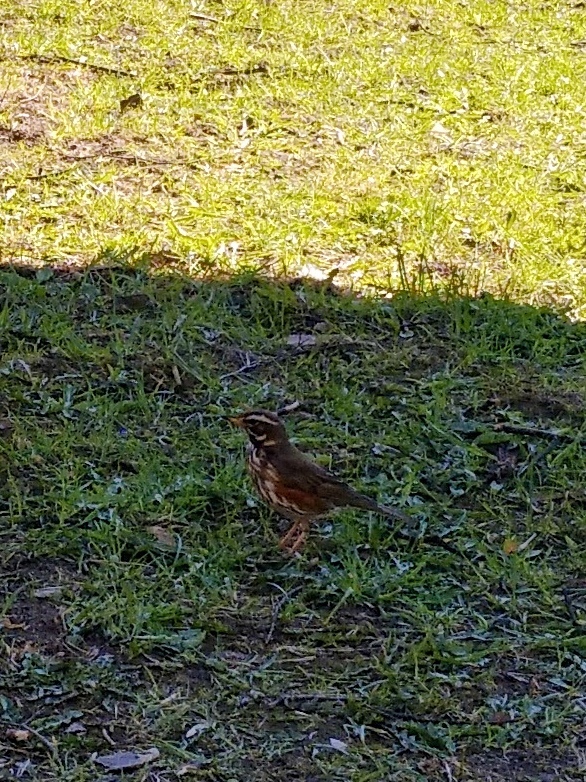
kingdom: Animalia
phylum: Chordata
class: Aves
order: Passeriformes
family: Turdidae
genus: Turdus
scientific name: Turdus iliacus
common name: Redwing
